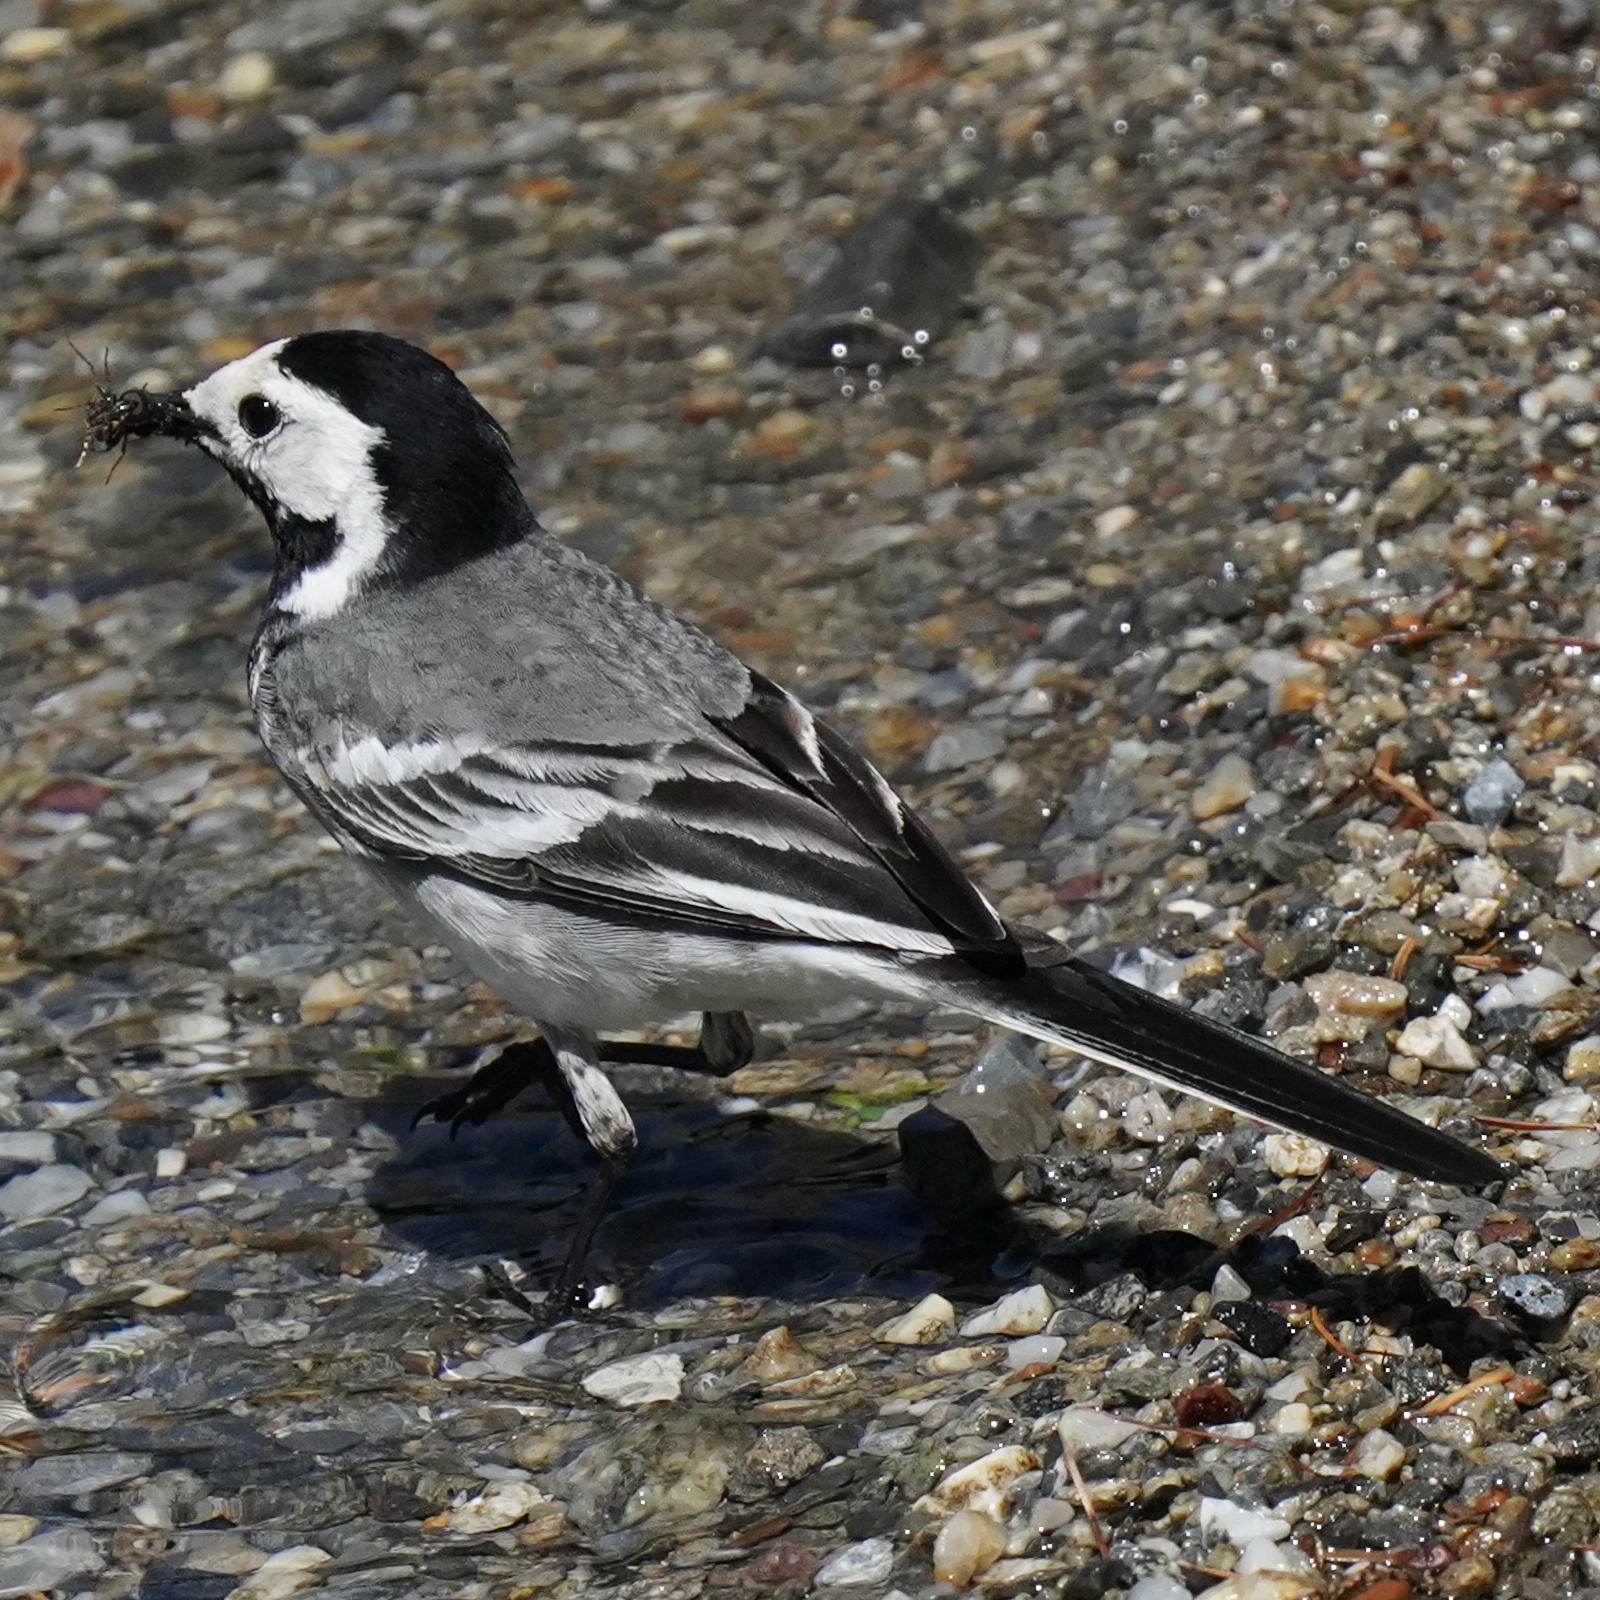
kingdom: Animalia
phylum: Chordata
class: Aves
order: Passeriformes
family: Motacillidae
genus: Motacilla
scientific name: Motacilla alba
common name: White wagtail
